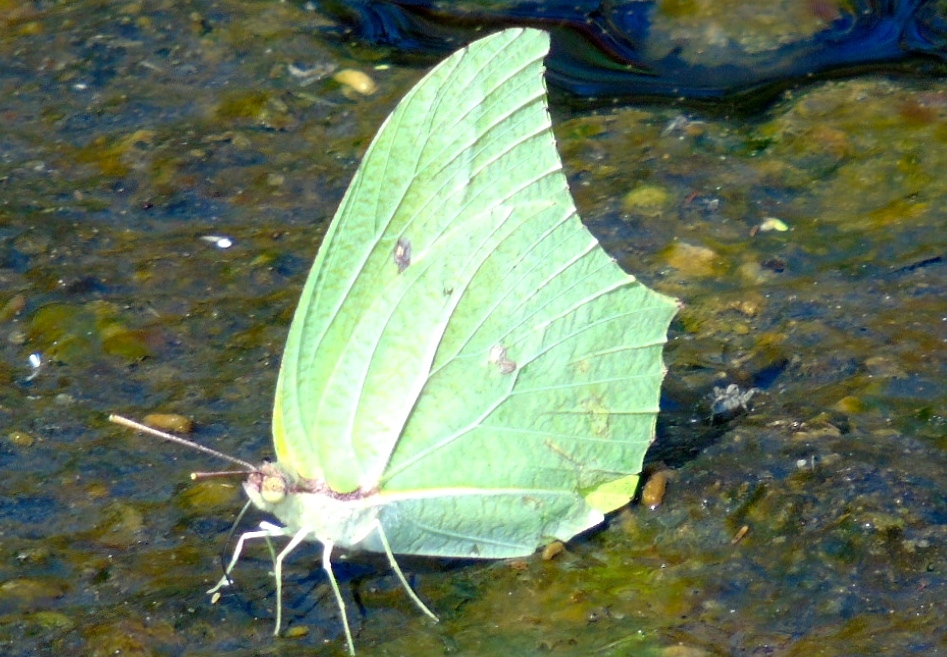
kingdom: Animalia
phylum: Arthropoda
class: Insecta
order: Lepidoptera
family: Pieridae
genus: Anteos
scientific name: Anteos maerula
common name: Angled sulphur
